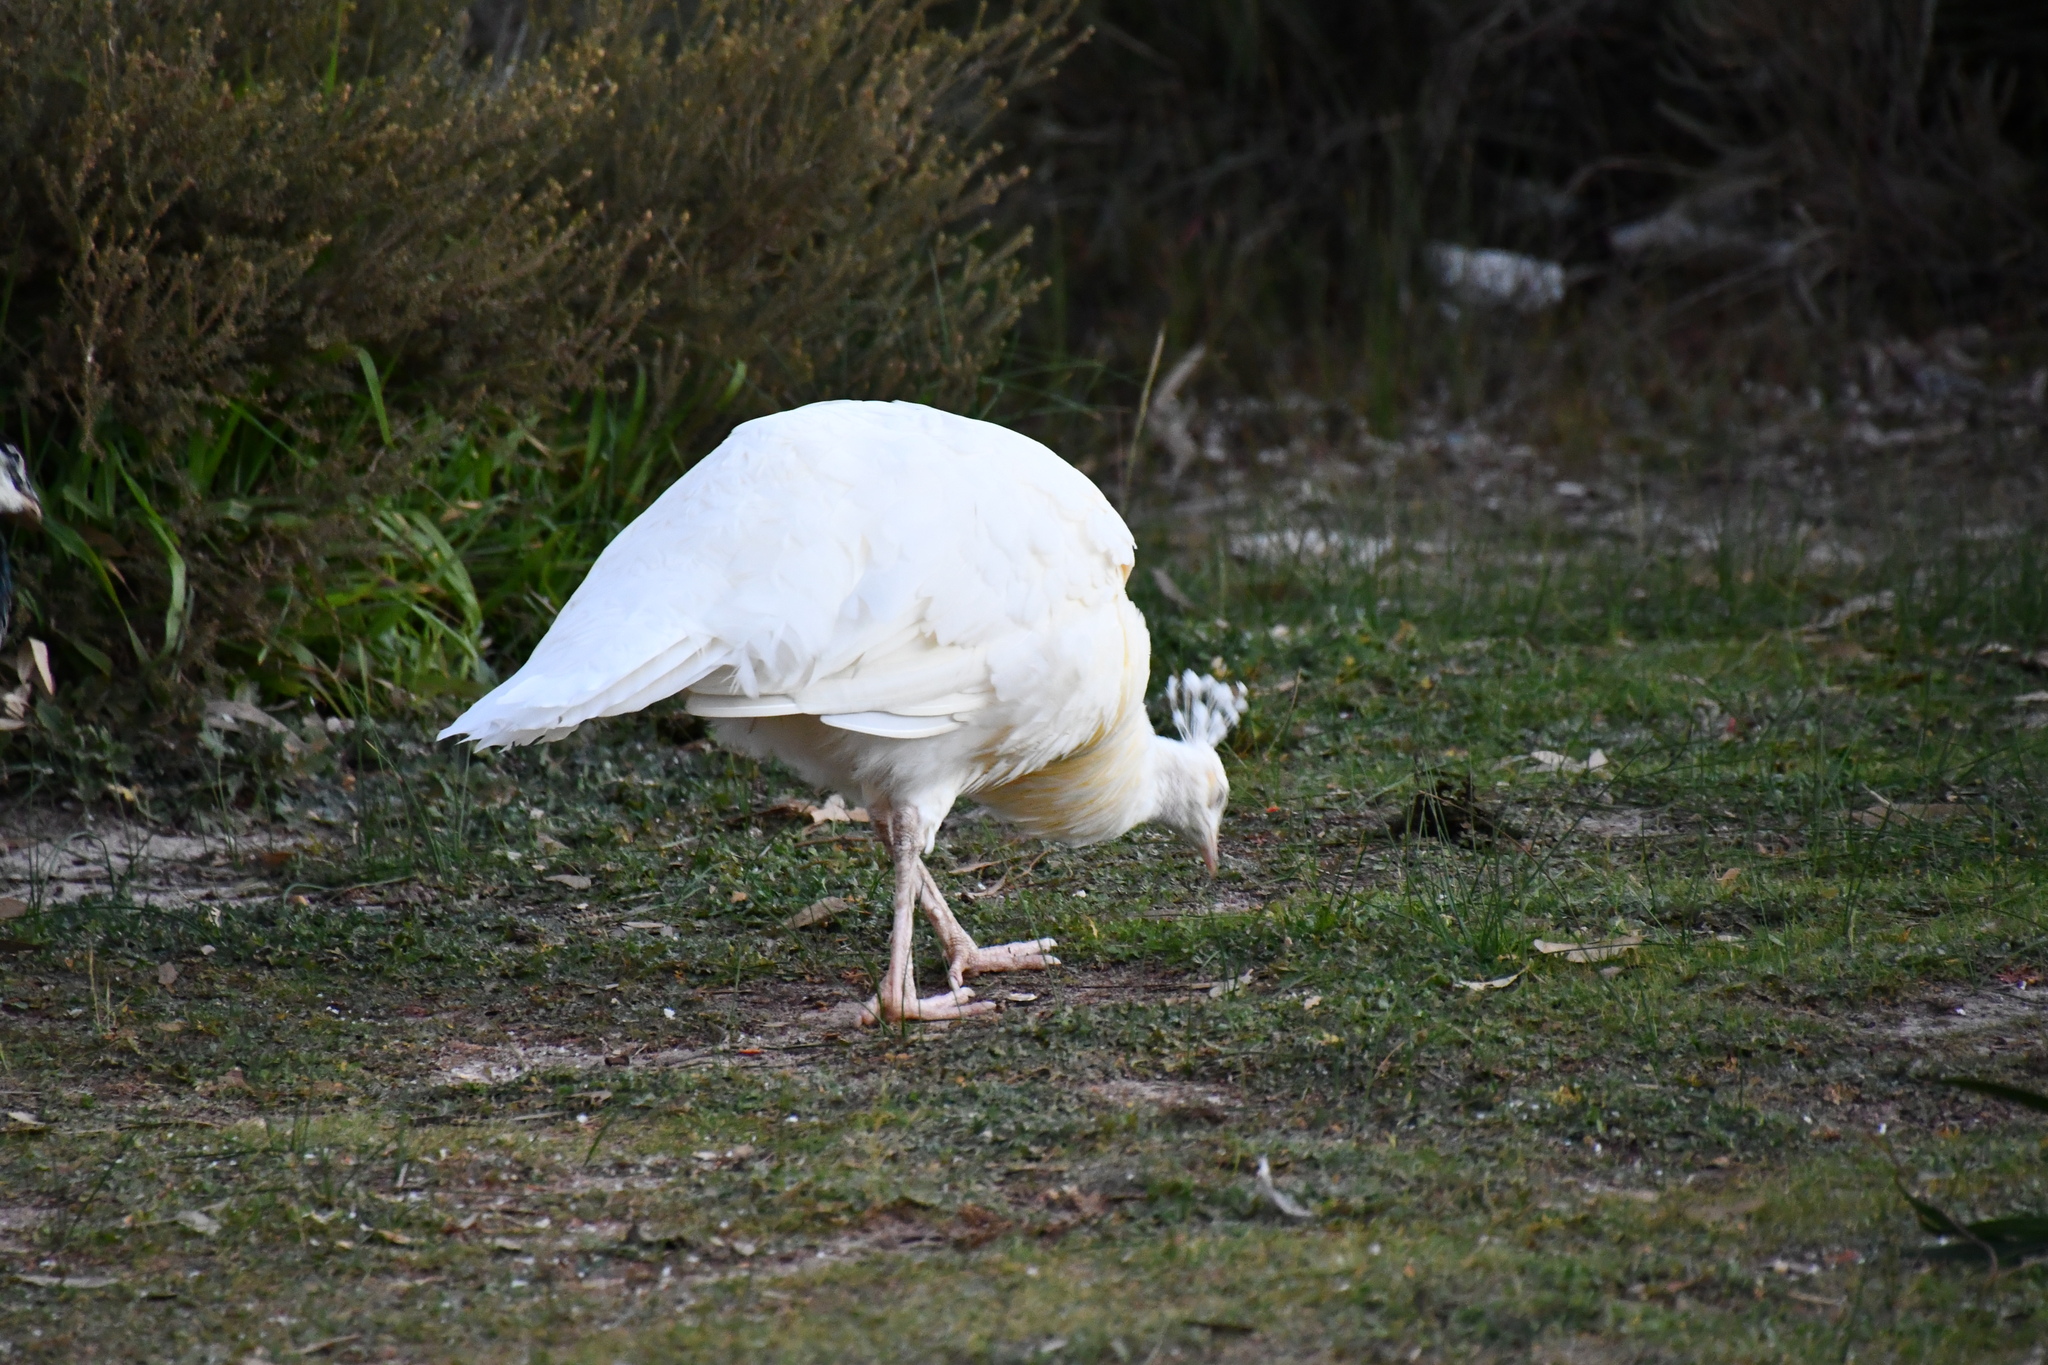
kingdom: Animalia
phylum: Chordata
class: Aves
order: Galliformes
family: Phasianidae
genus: Pavo
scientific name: Pavo cristatus
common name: Indian peafowl
